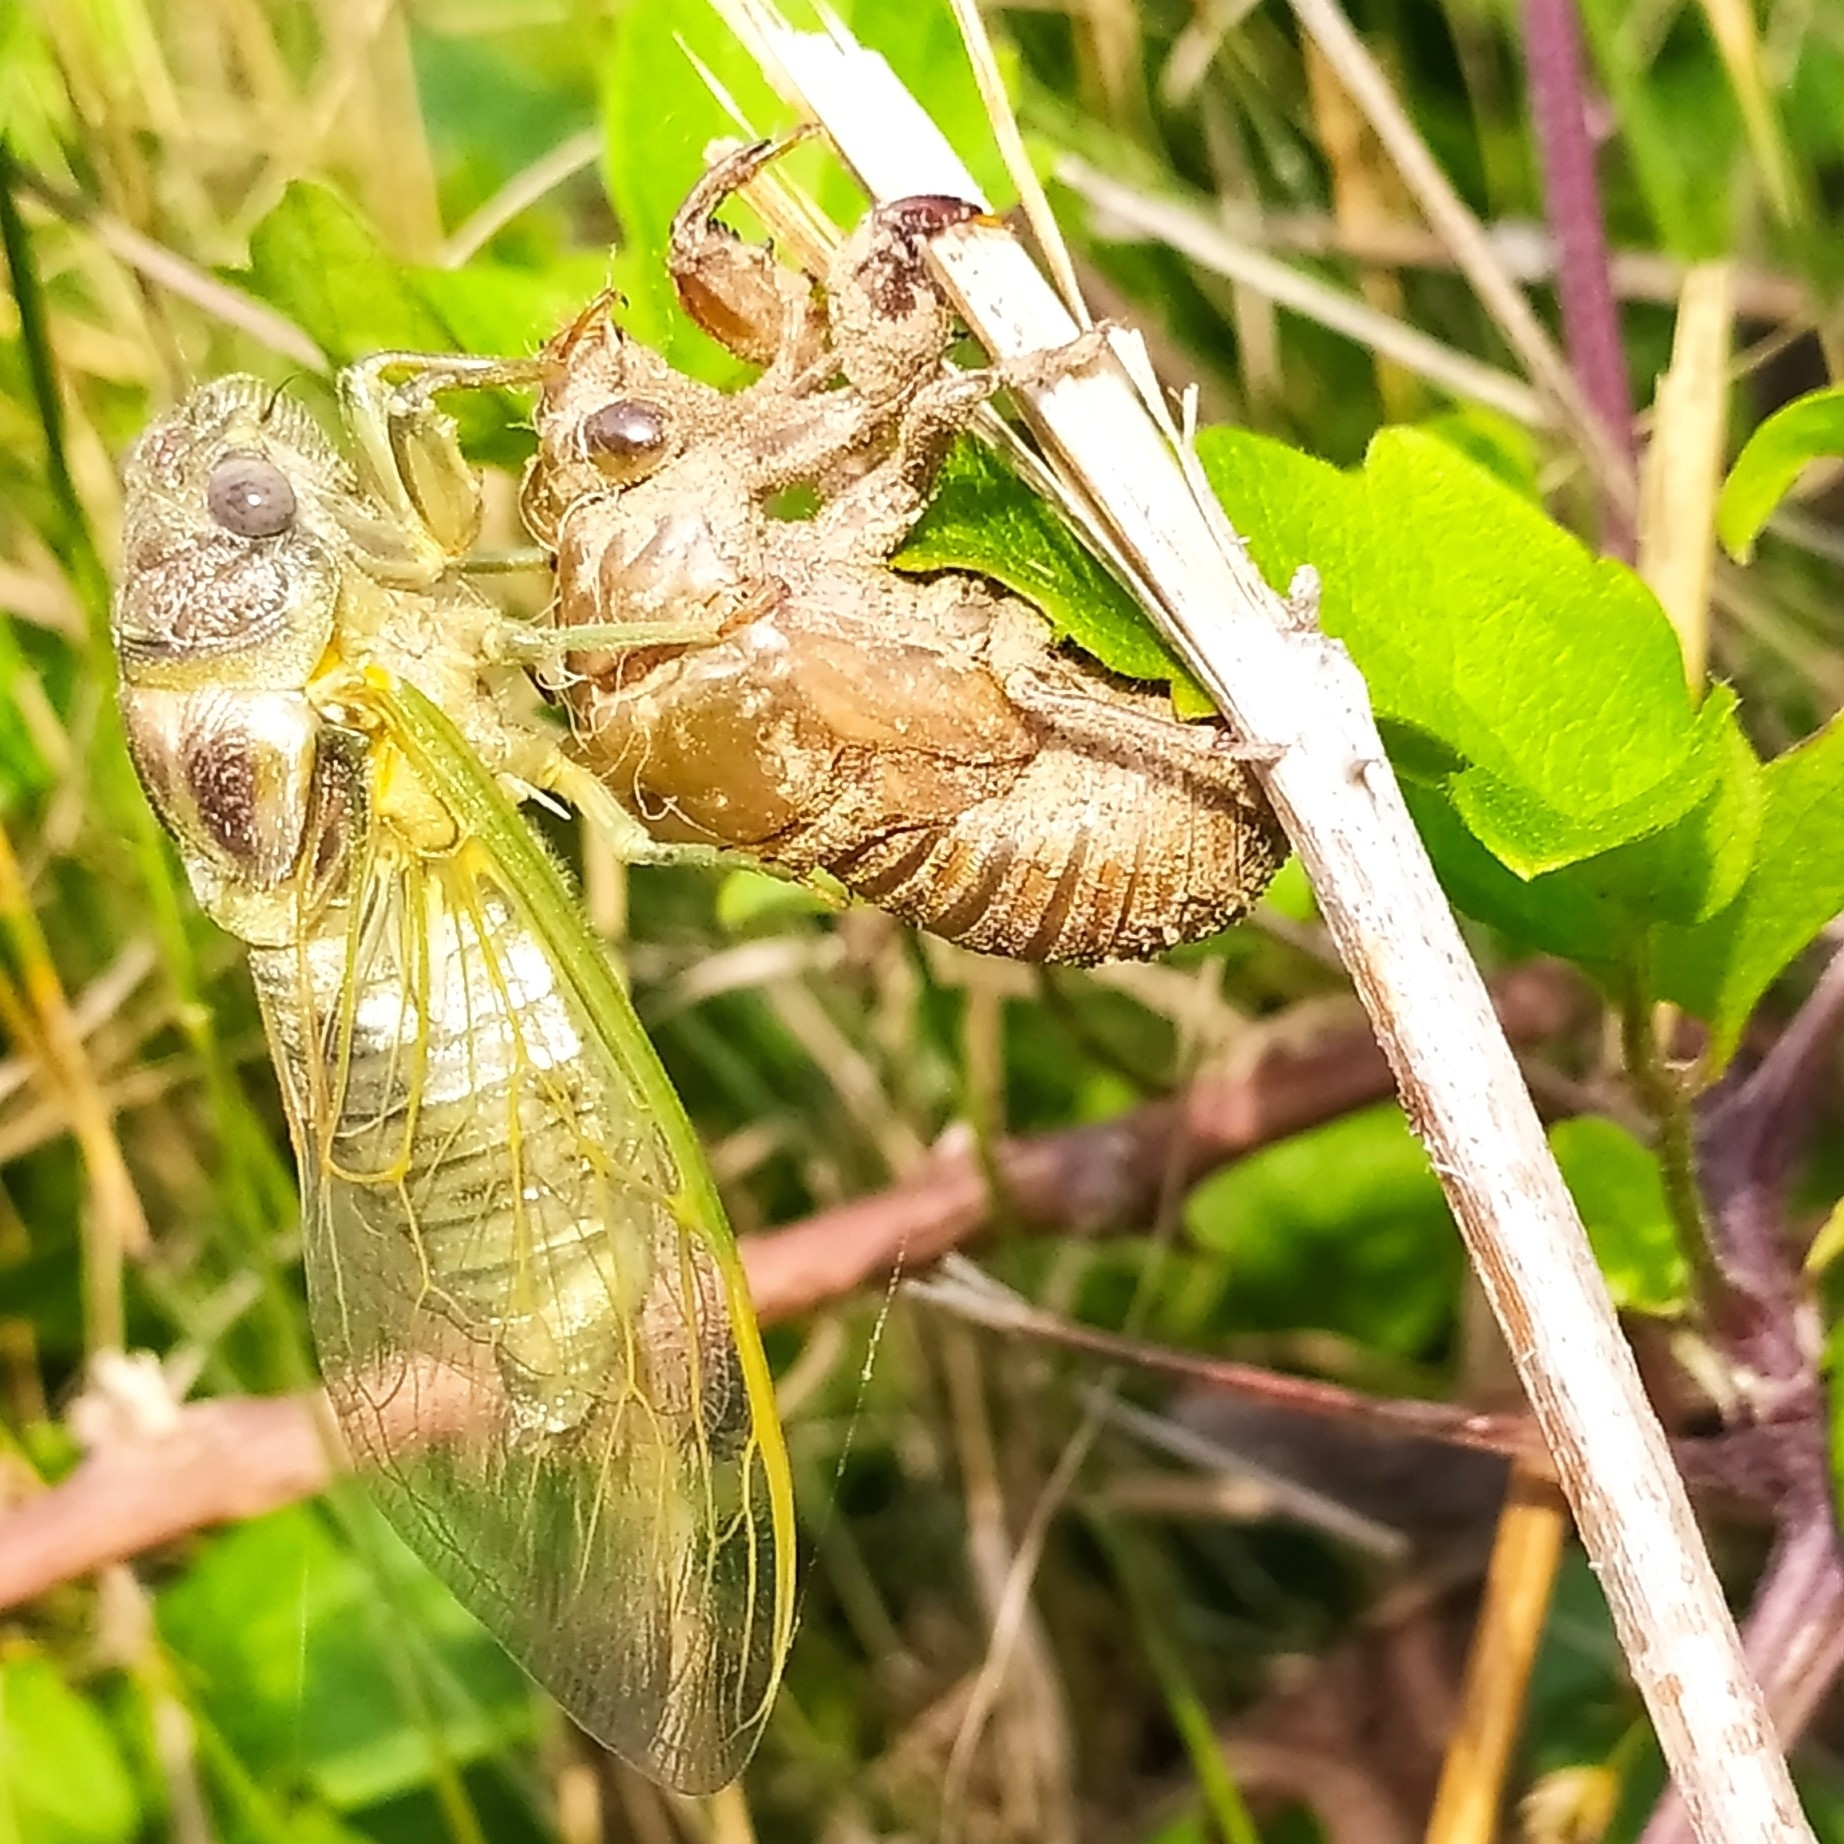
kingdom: Animalia
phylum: Arthropoda
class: Insecta
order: Hemiptera
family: Cicadidae
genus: Lyristes
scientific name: Lyristes plebejus
